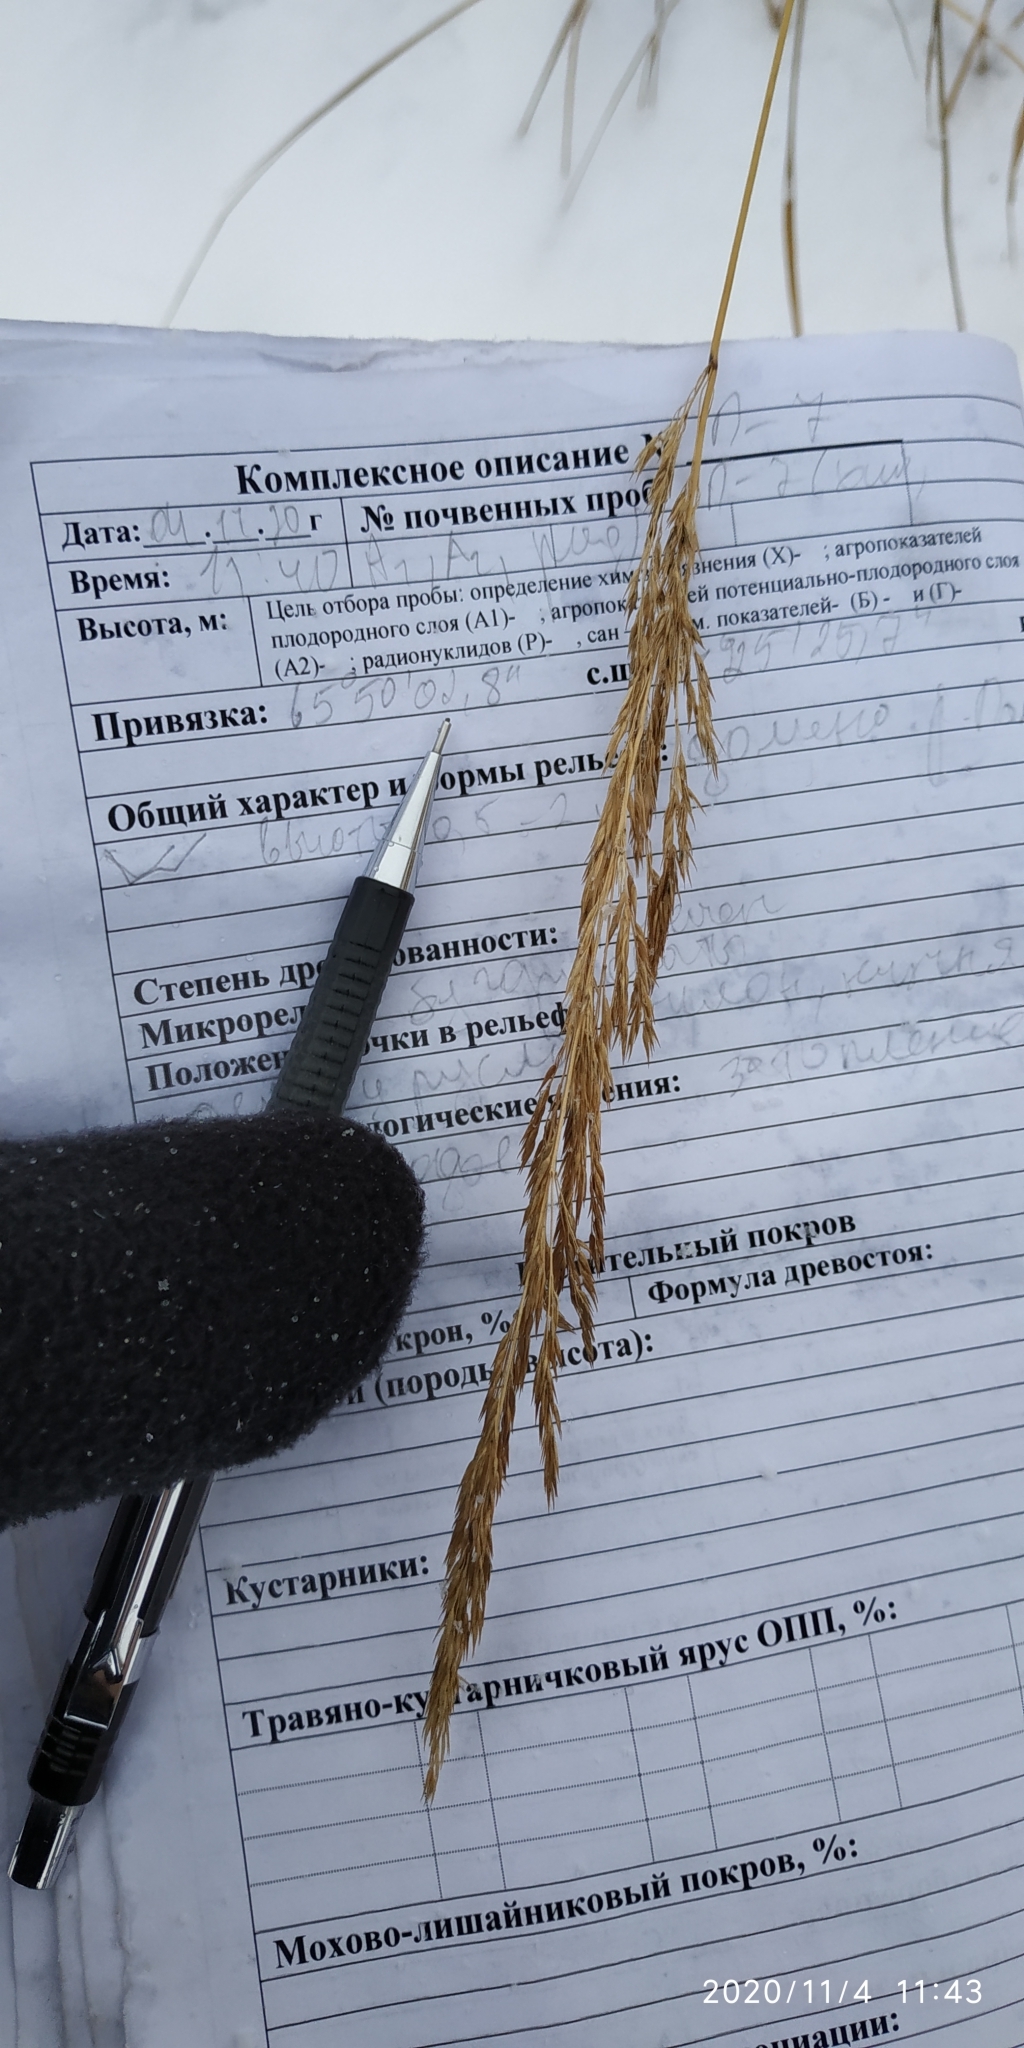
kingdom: Plantae
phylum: Tracheophyta
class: Liliopsida
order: Poales
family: Poaceae
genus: Calamagrostis
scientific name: Calamagrostis purpurea
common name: Scandinavian small-reed
